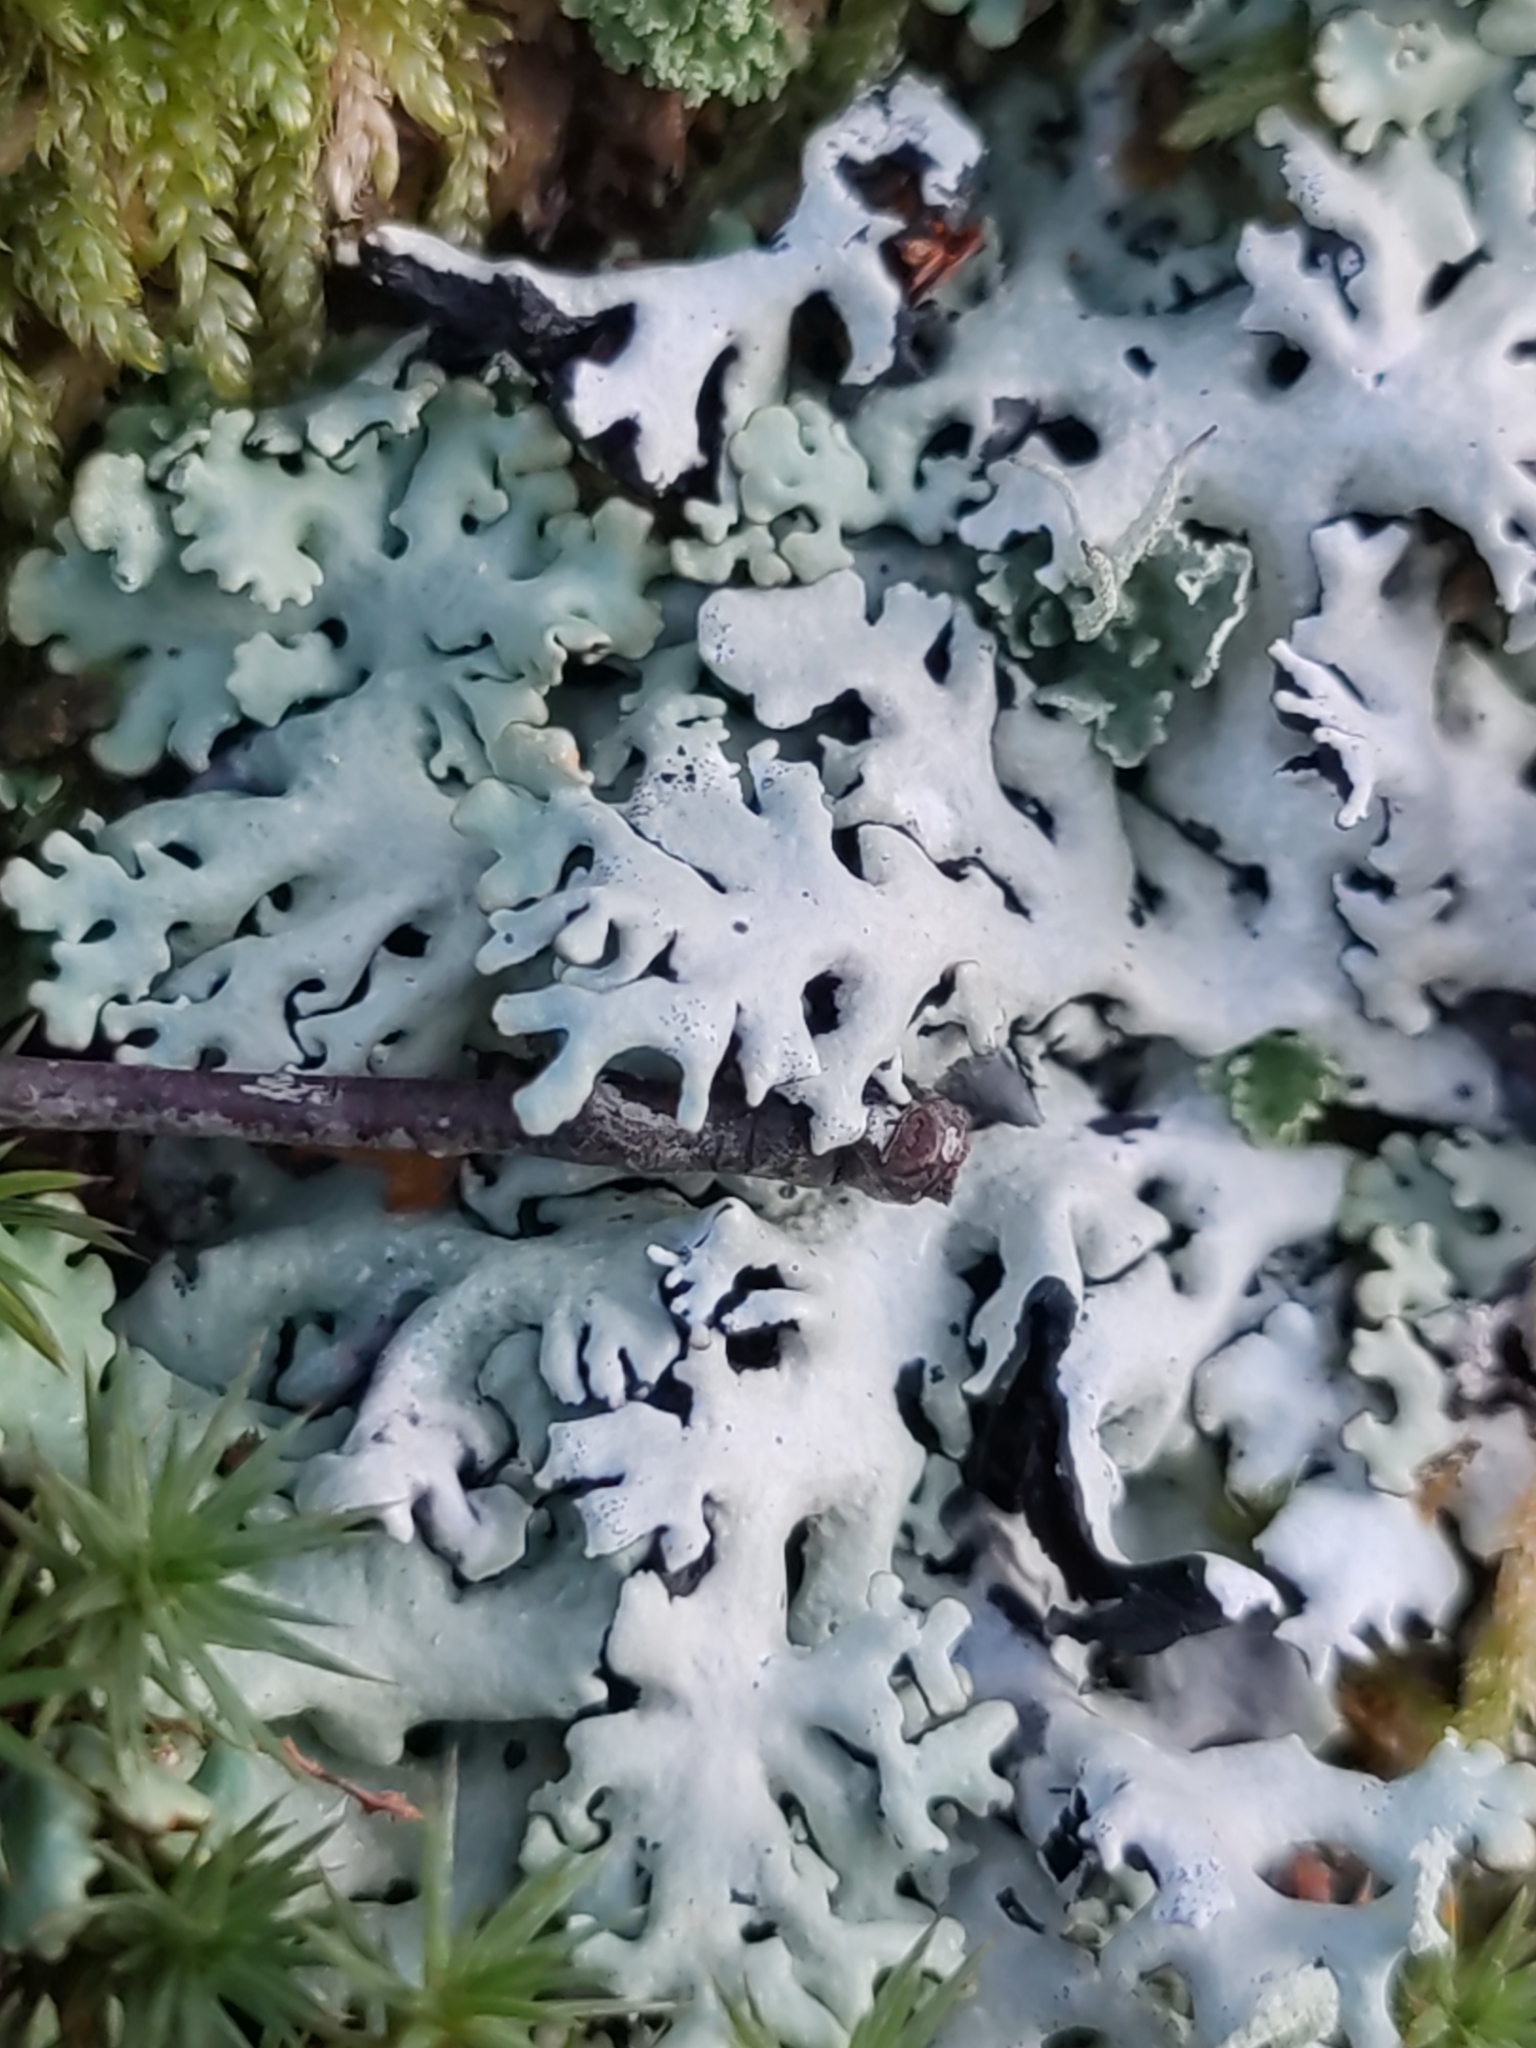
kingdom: Fungi
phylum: Ascomycota
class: Lecanoromycetes
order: Lecanorales
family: Parmeliaceae
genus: Hypogymnia
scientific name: Hypogymnia physodes
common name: Dark crottle
